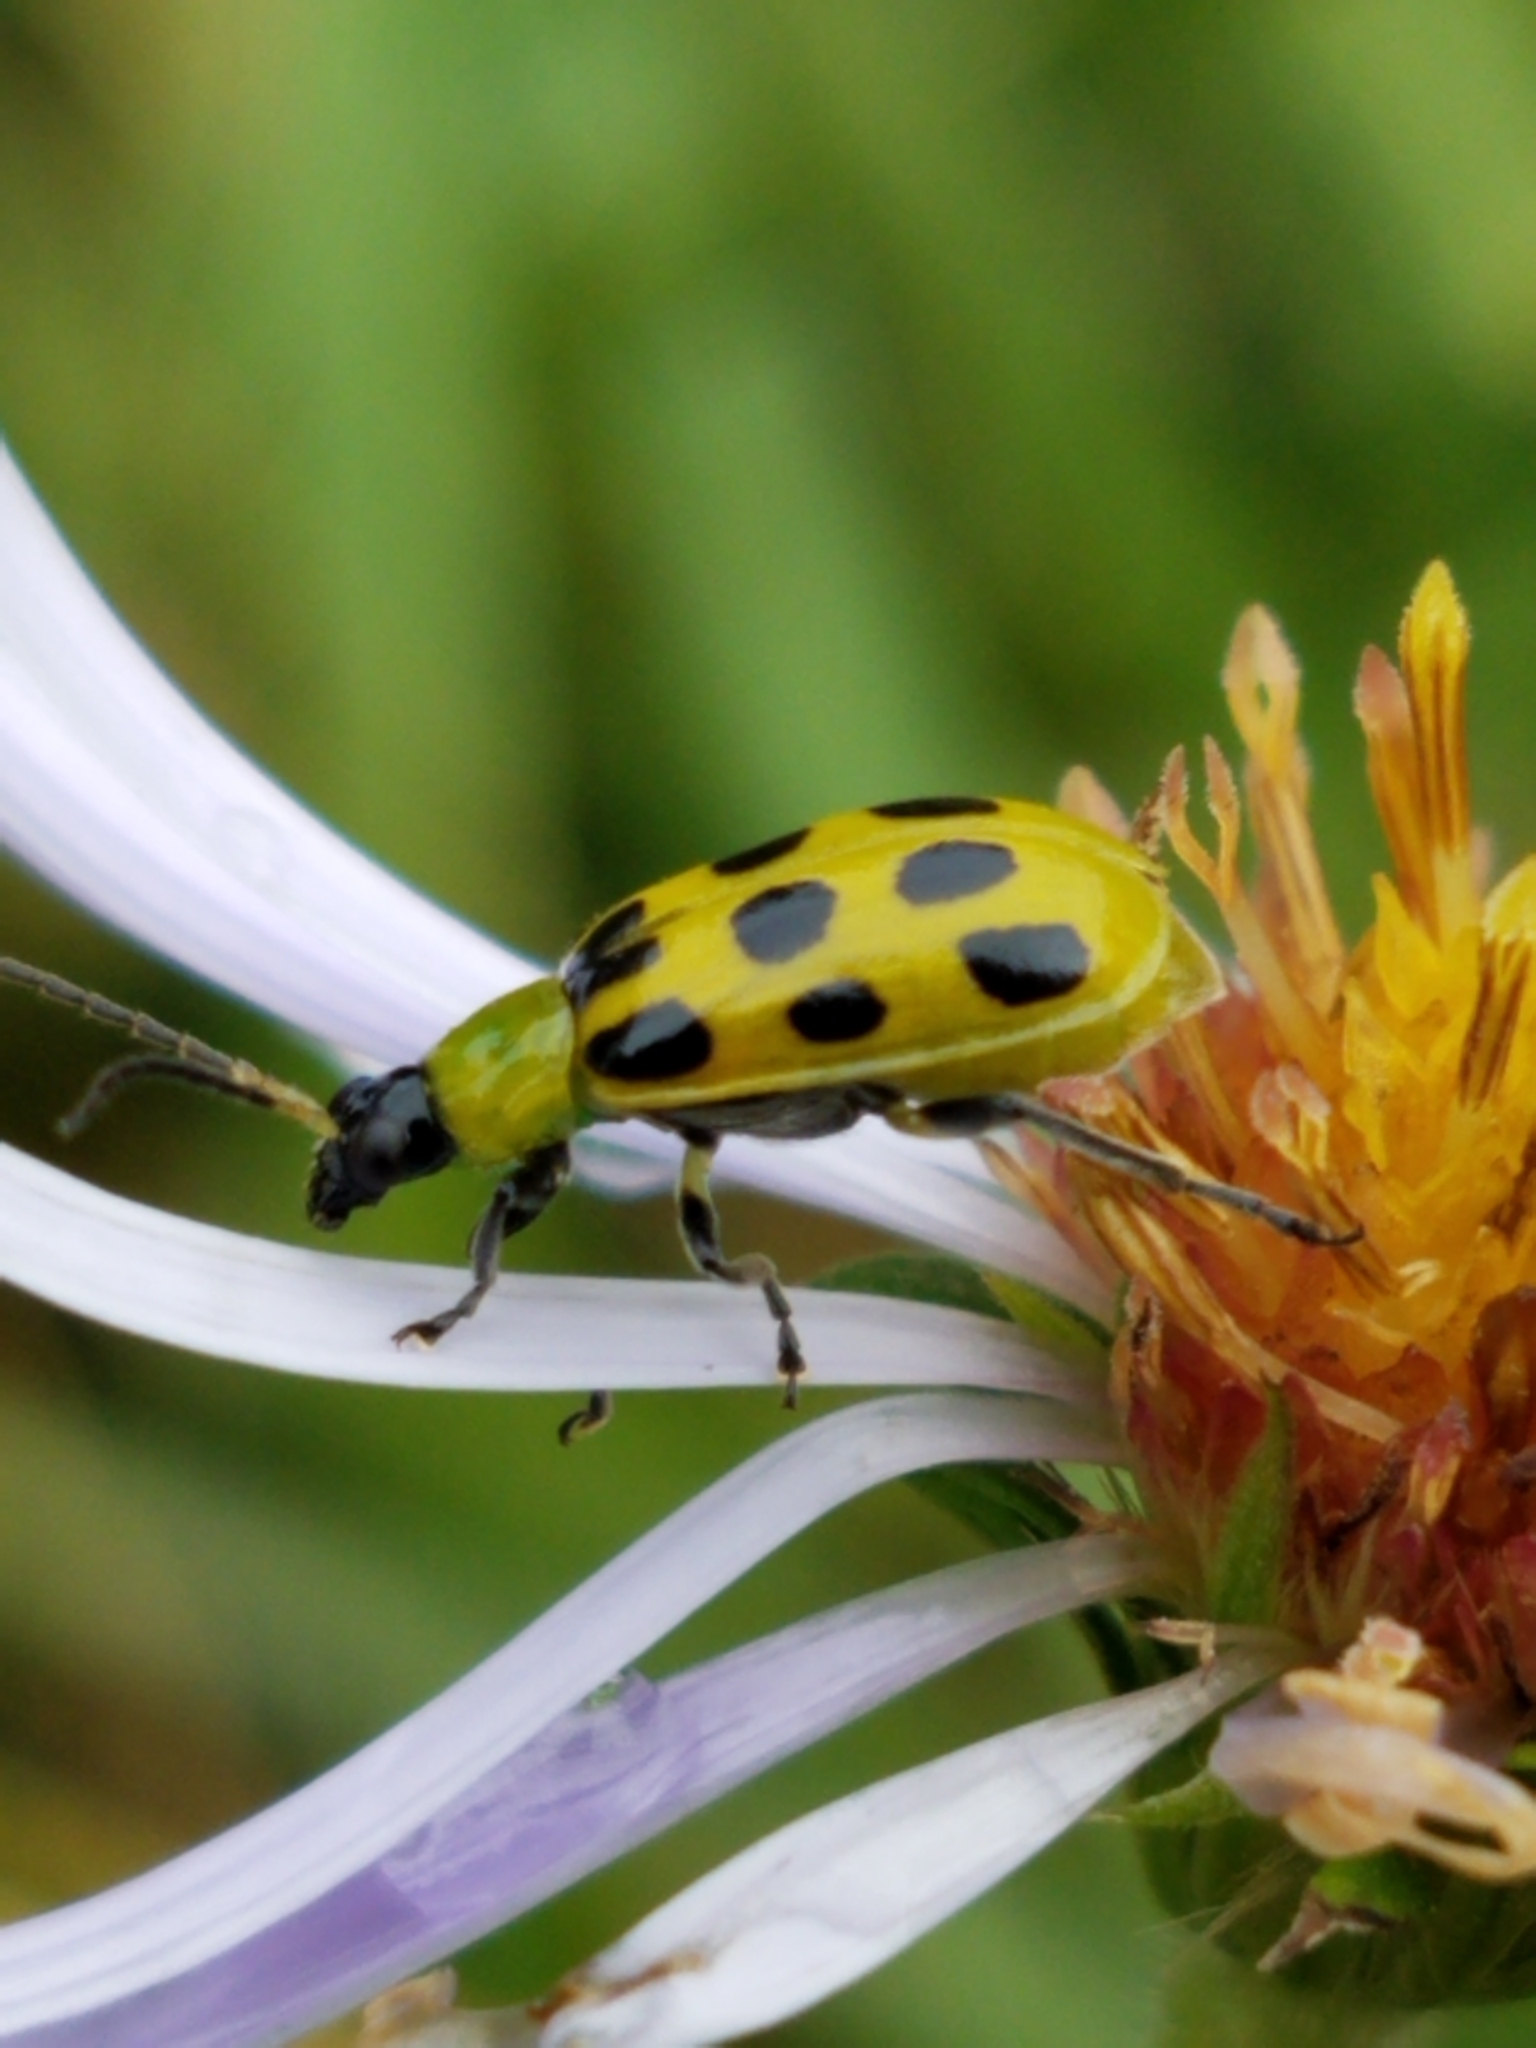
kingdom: Animalia
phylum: Arthropoda
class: Insecta
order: Coleoptera
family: Chrysomelidae
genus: Diabrotica
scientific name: Diabrotica undecimpunctata
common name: Spotted cucumber beetle
